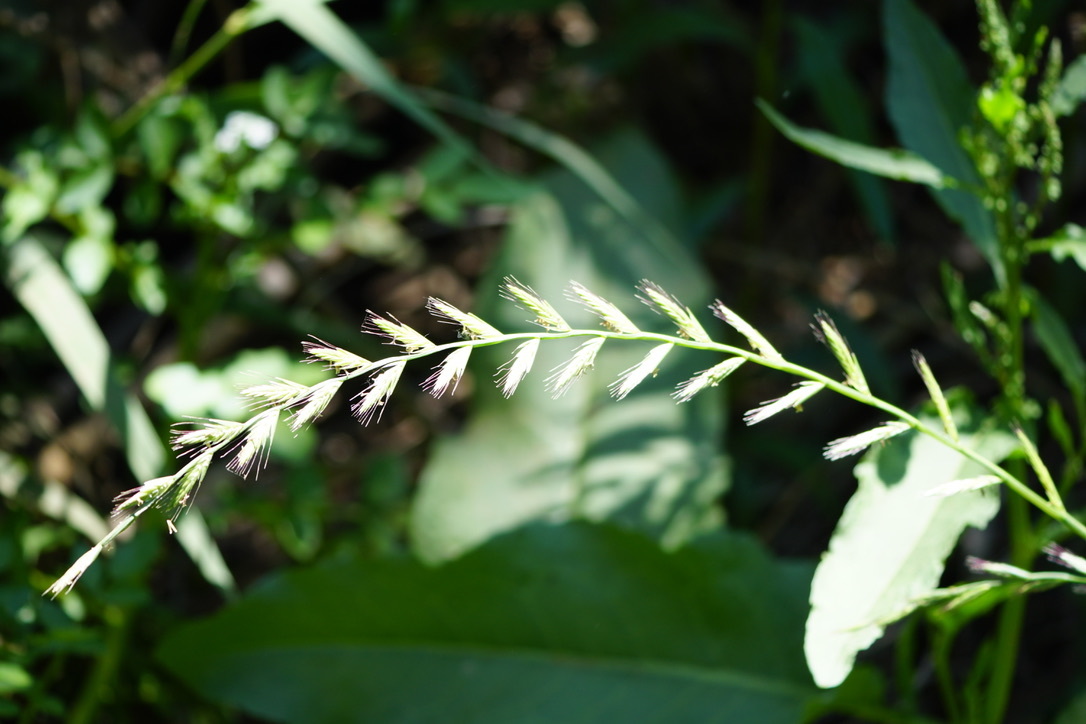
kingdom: Plantae
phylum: Tracheophyta
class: Liliopsida
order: Poales
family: Poaceae
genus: Lolium
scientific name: Lolium multiflorum
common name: Annual ryegrass
